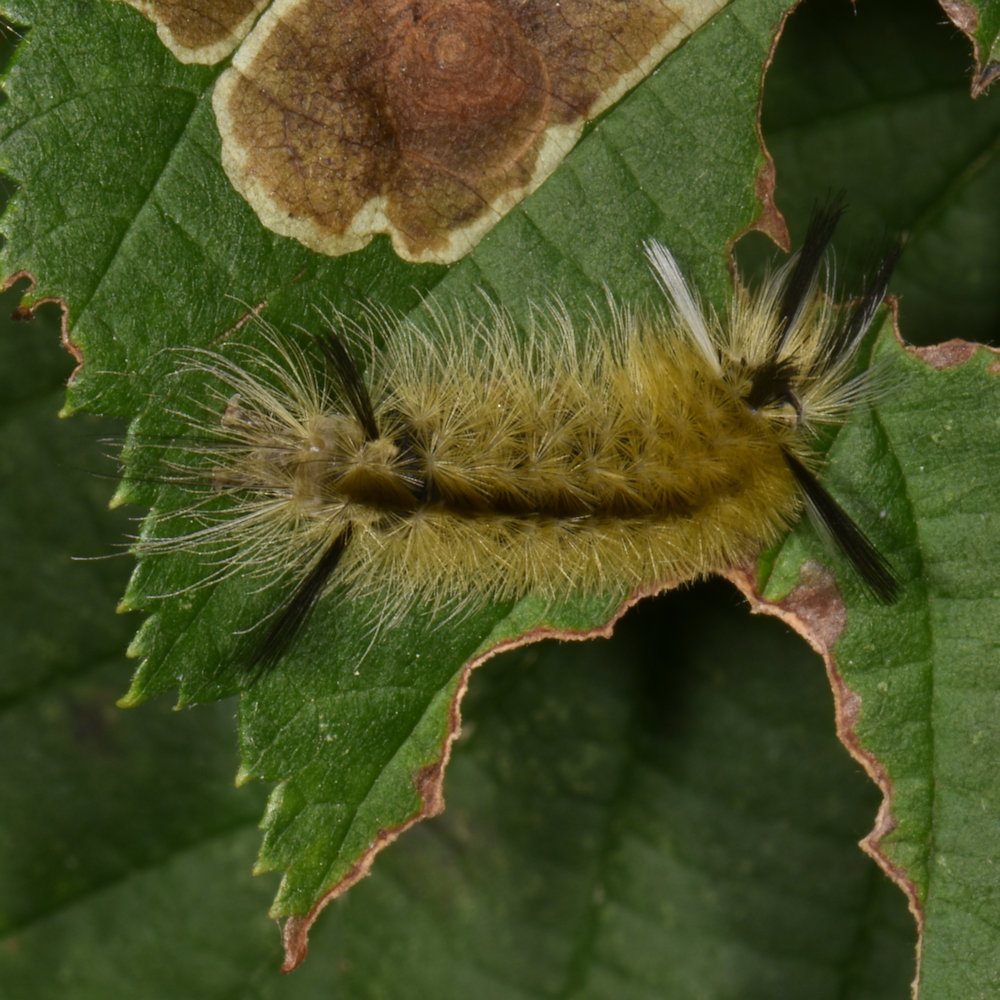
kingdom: Animalia
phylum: Arthropoda
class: Insecta
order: Lepidoptera
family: Erebidae
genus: Halysidota
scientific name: Halysidota tessellaris
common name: Banded tussock moth
